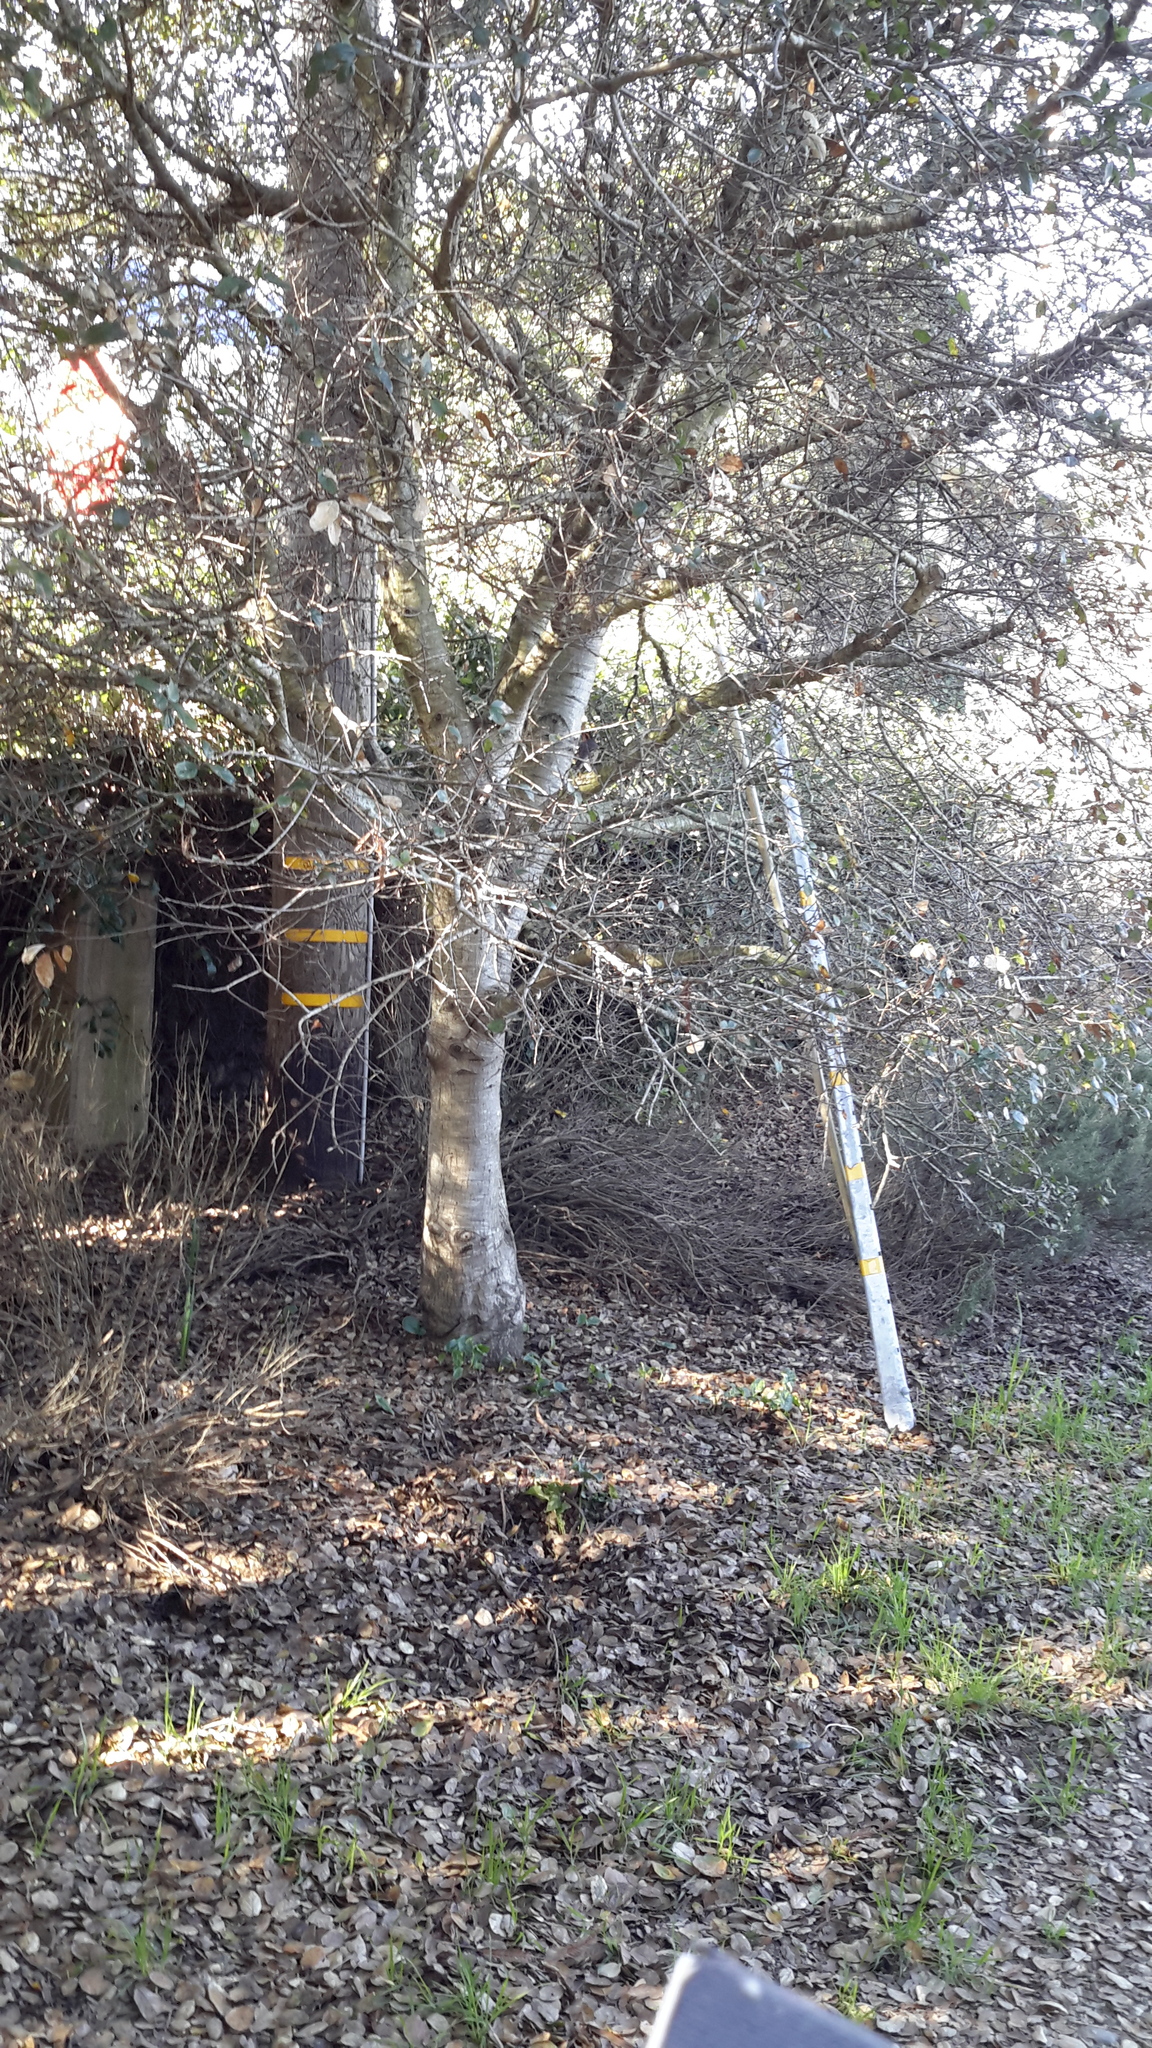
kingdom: Animalia
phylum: Chordata
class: Aves
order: Passeriformes
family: Turdidae
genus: Ixoreus
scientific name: Ixoreus naevius
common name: Varied thrush
